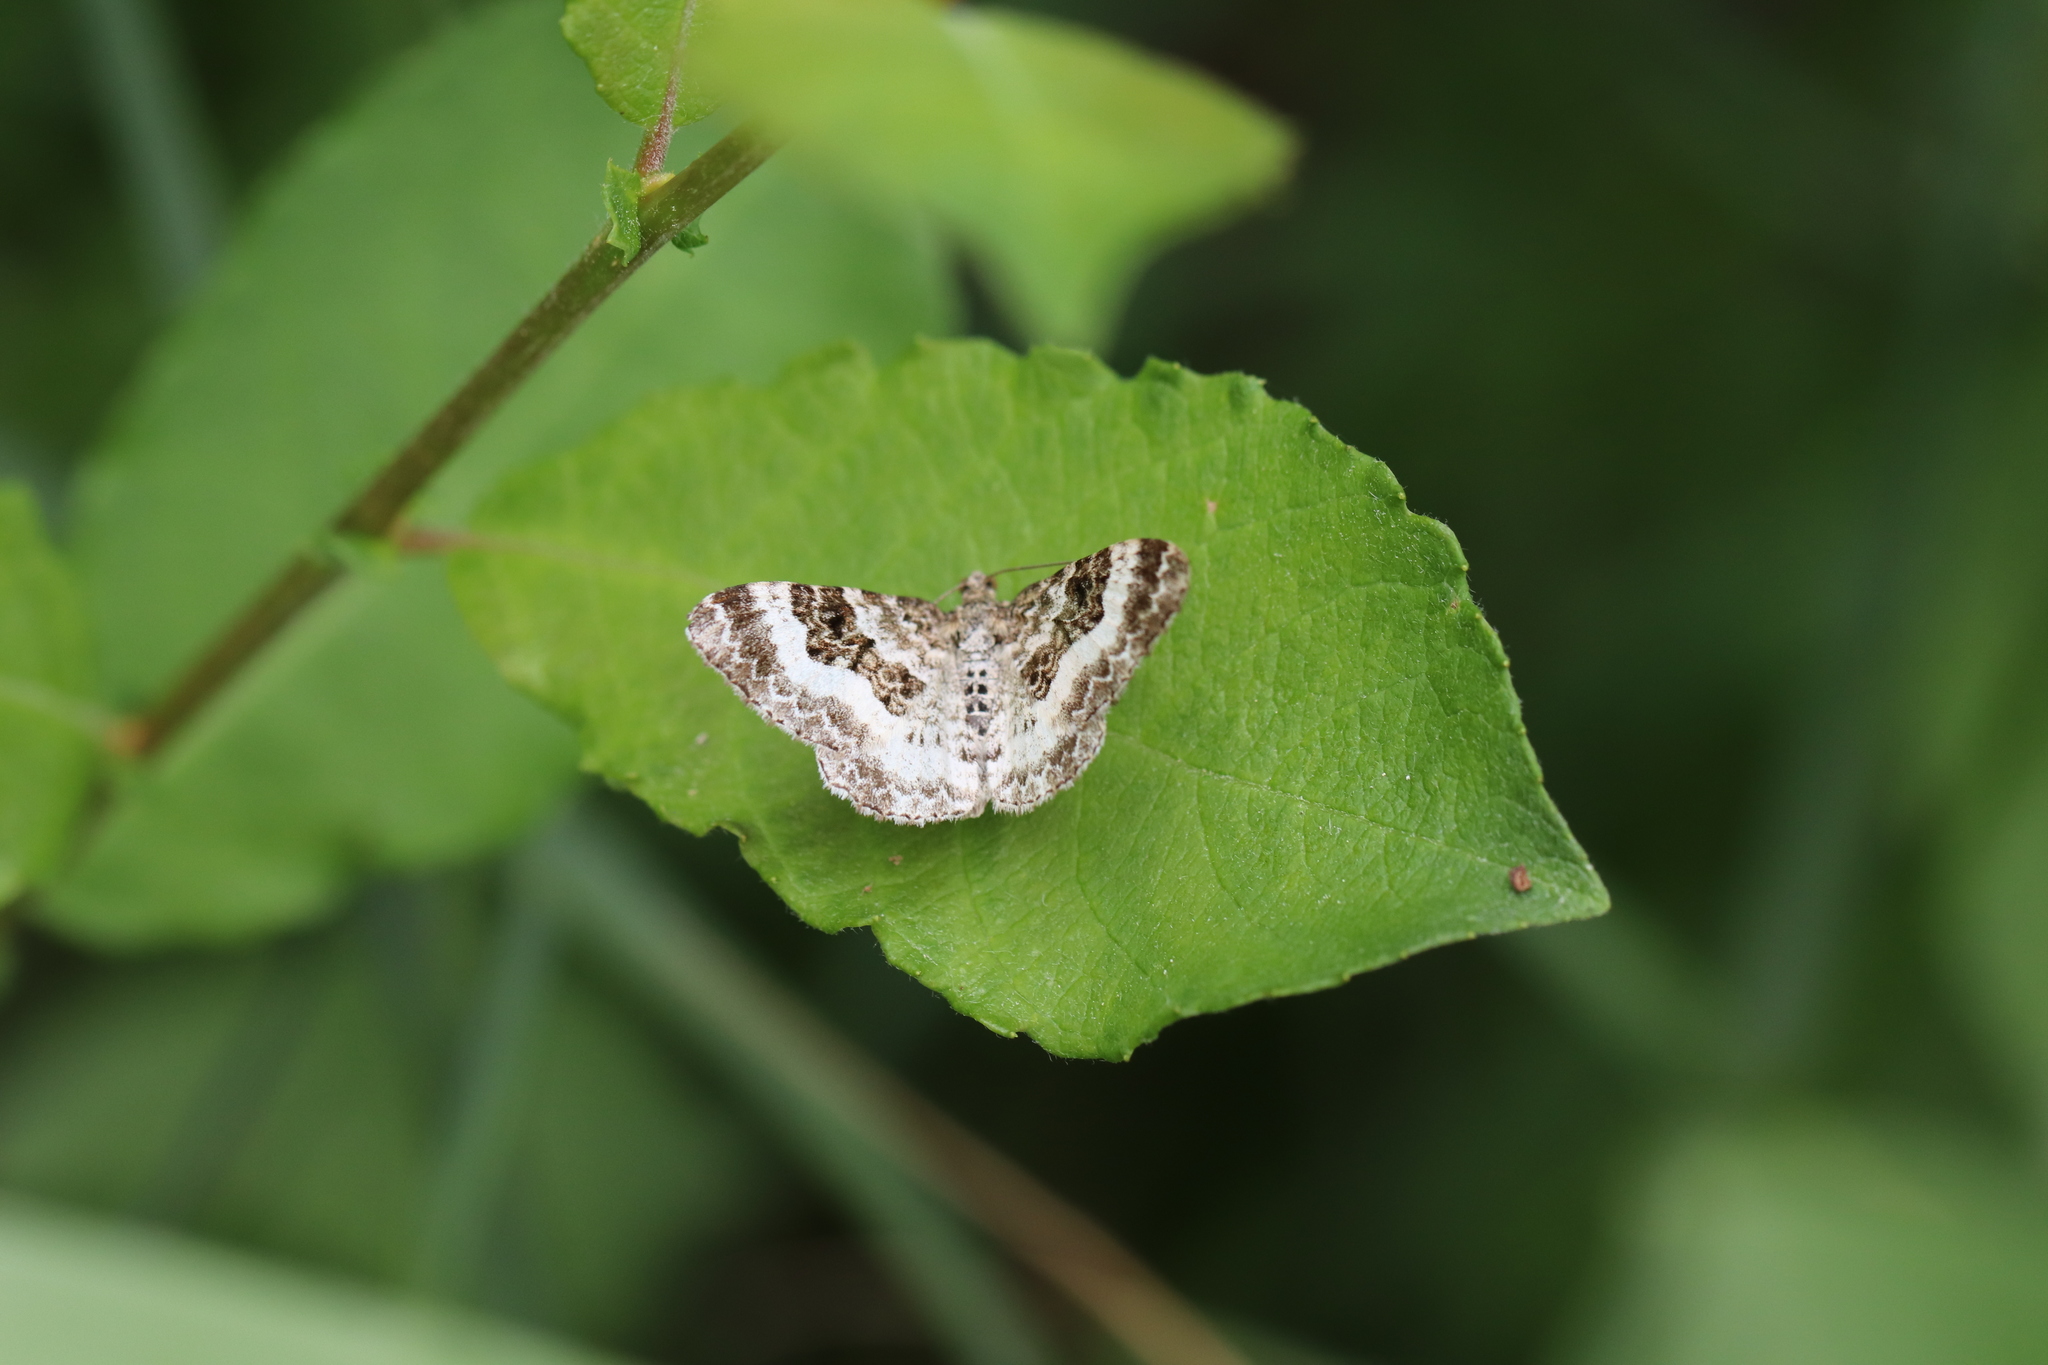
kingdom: Animalia
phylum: Arthropoda
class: Insecta
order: Lepidoptera
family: Geometridae
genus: Epirrhoe
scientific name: Epirrhoe alternata
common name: Common carpet
